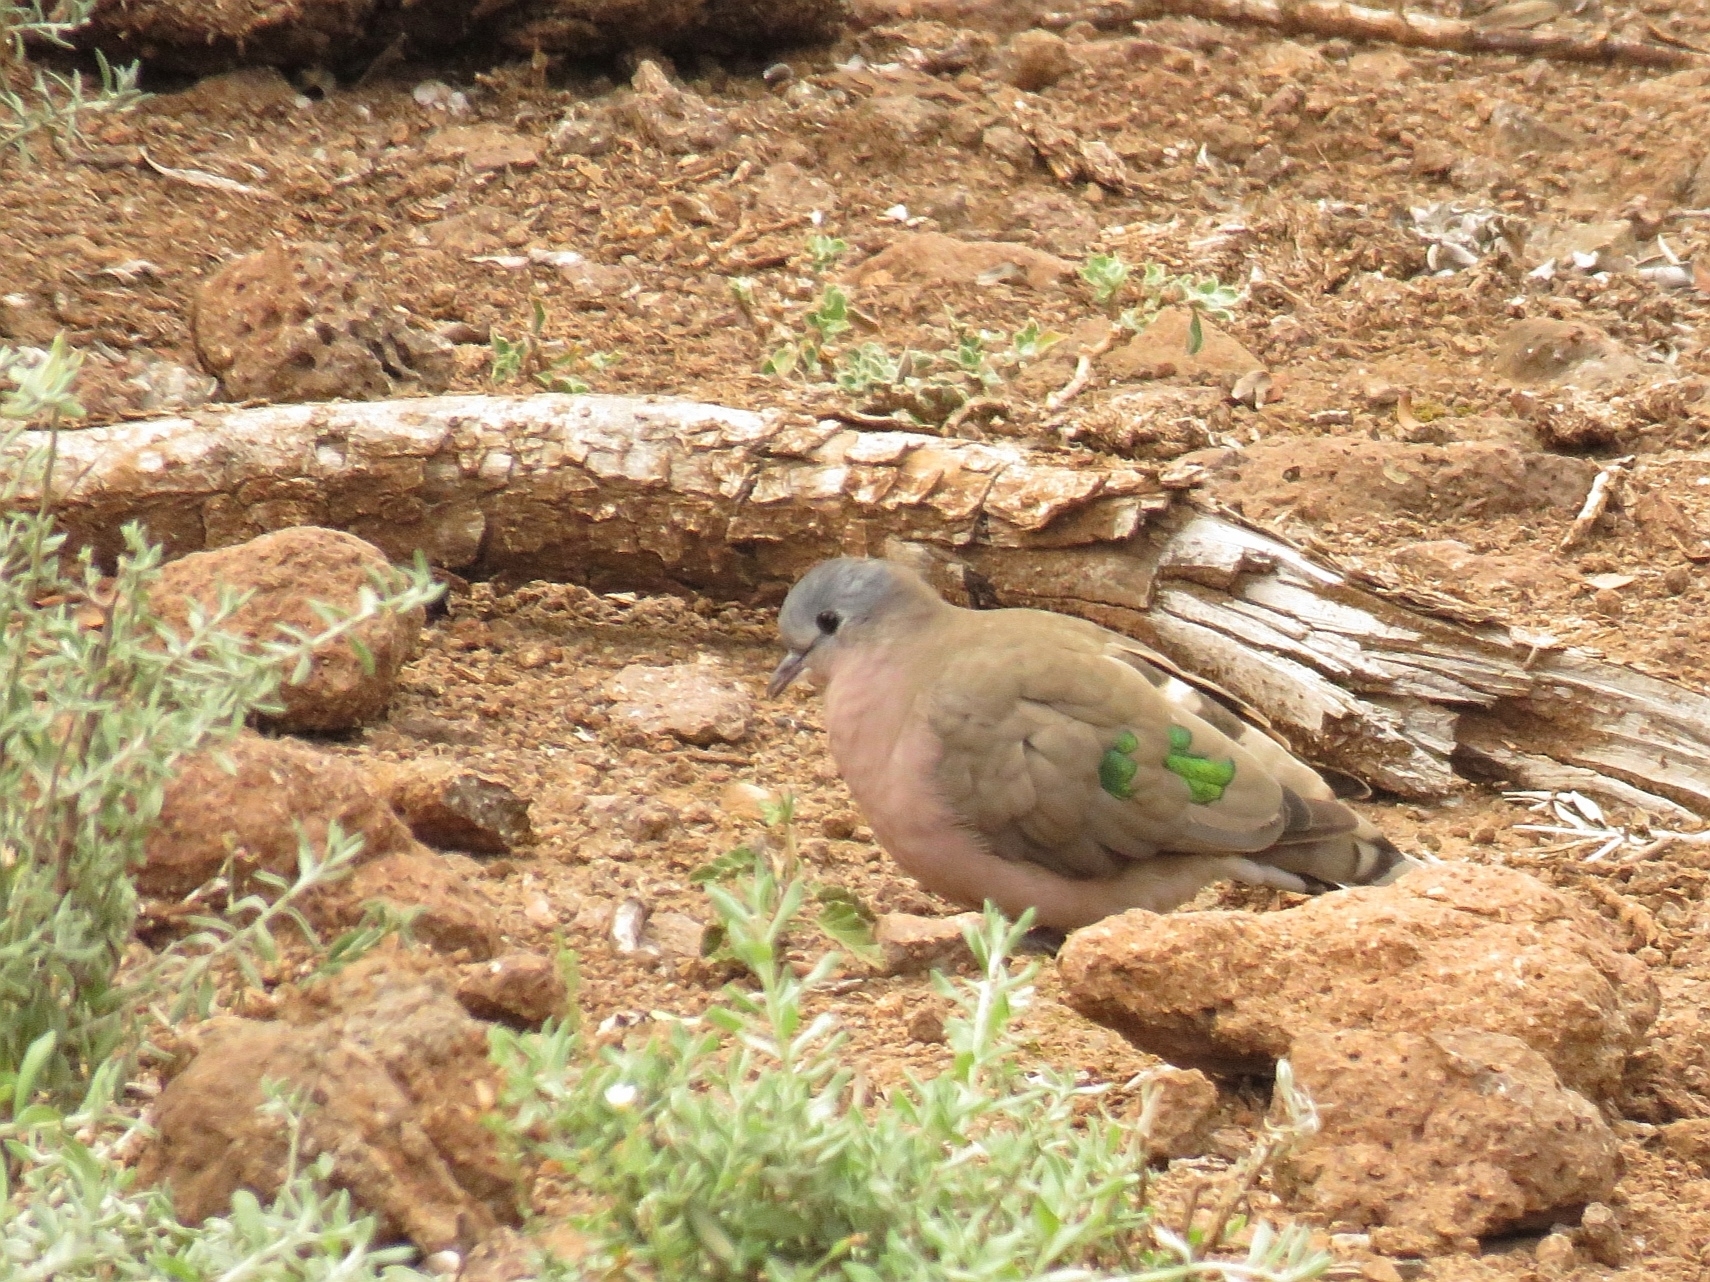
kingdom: Animalia
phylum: Chordata
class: Aves
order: Columbiformes
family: Columbidae
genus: Turtur
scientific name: Turtur chalcospilos
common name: Emerald-spotted wood dove
